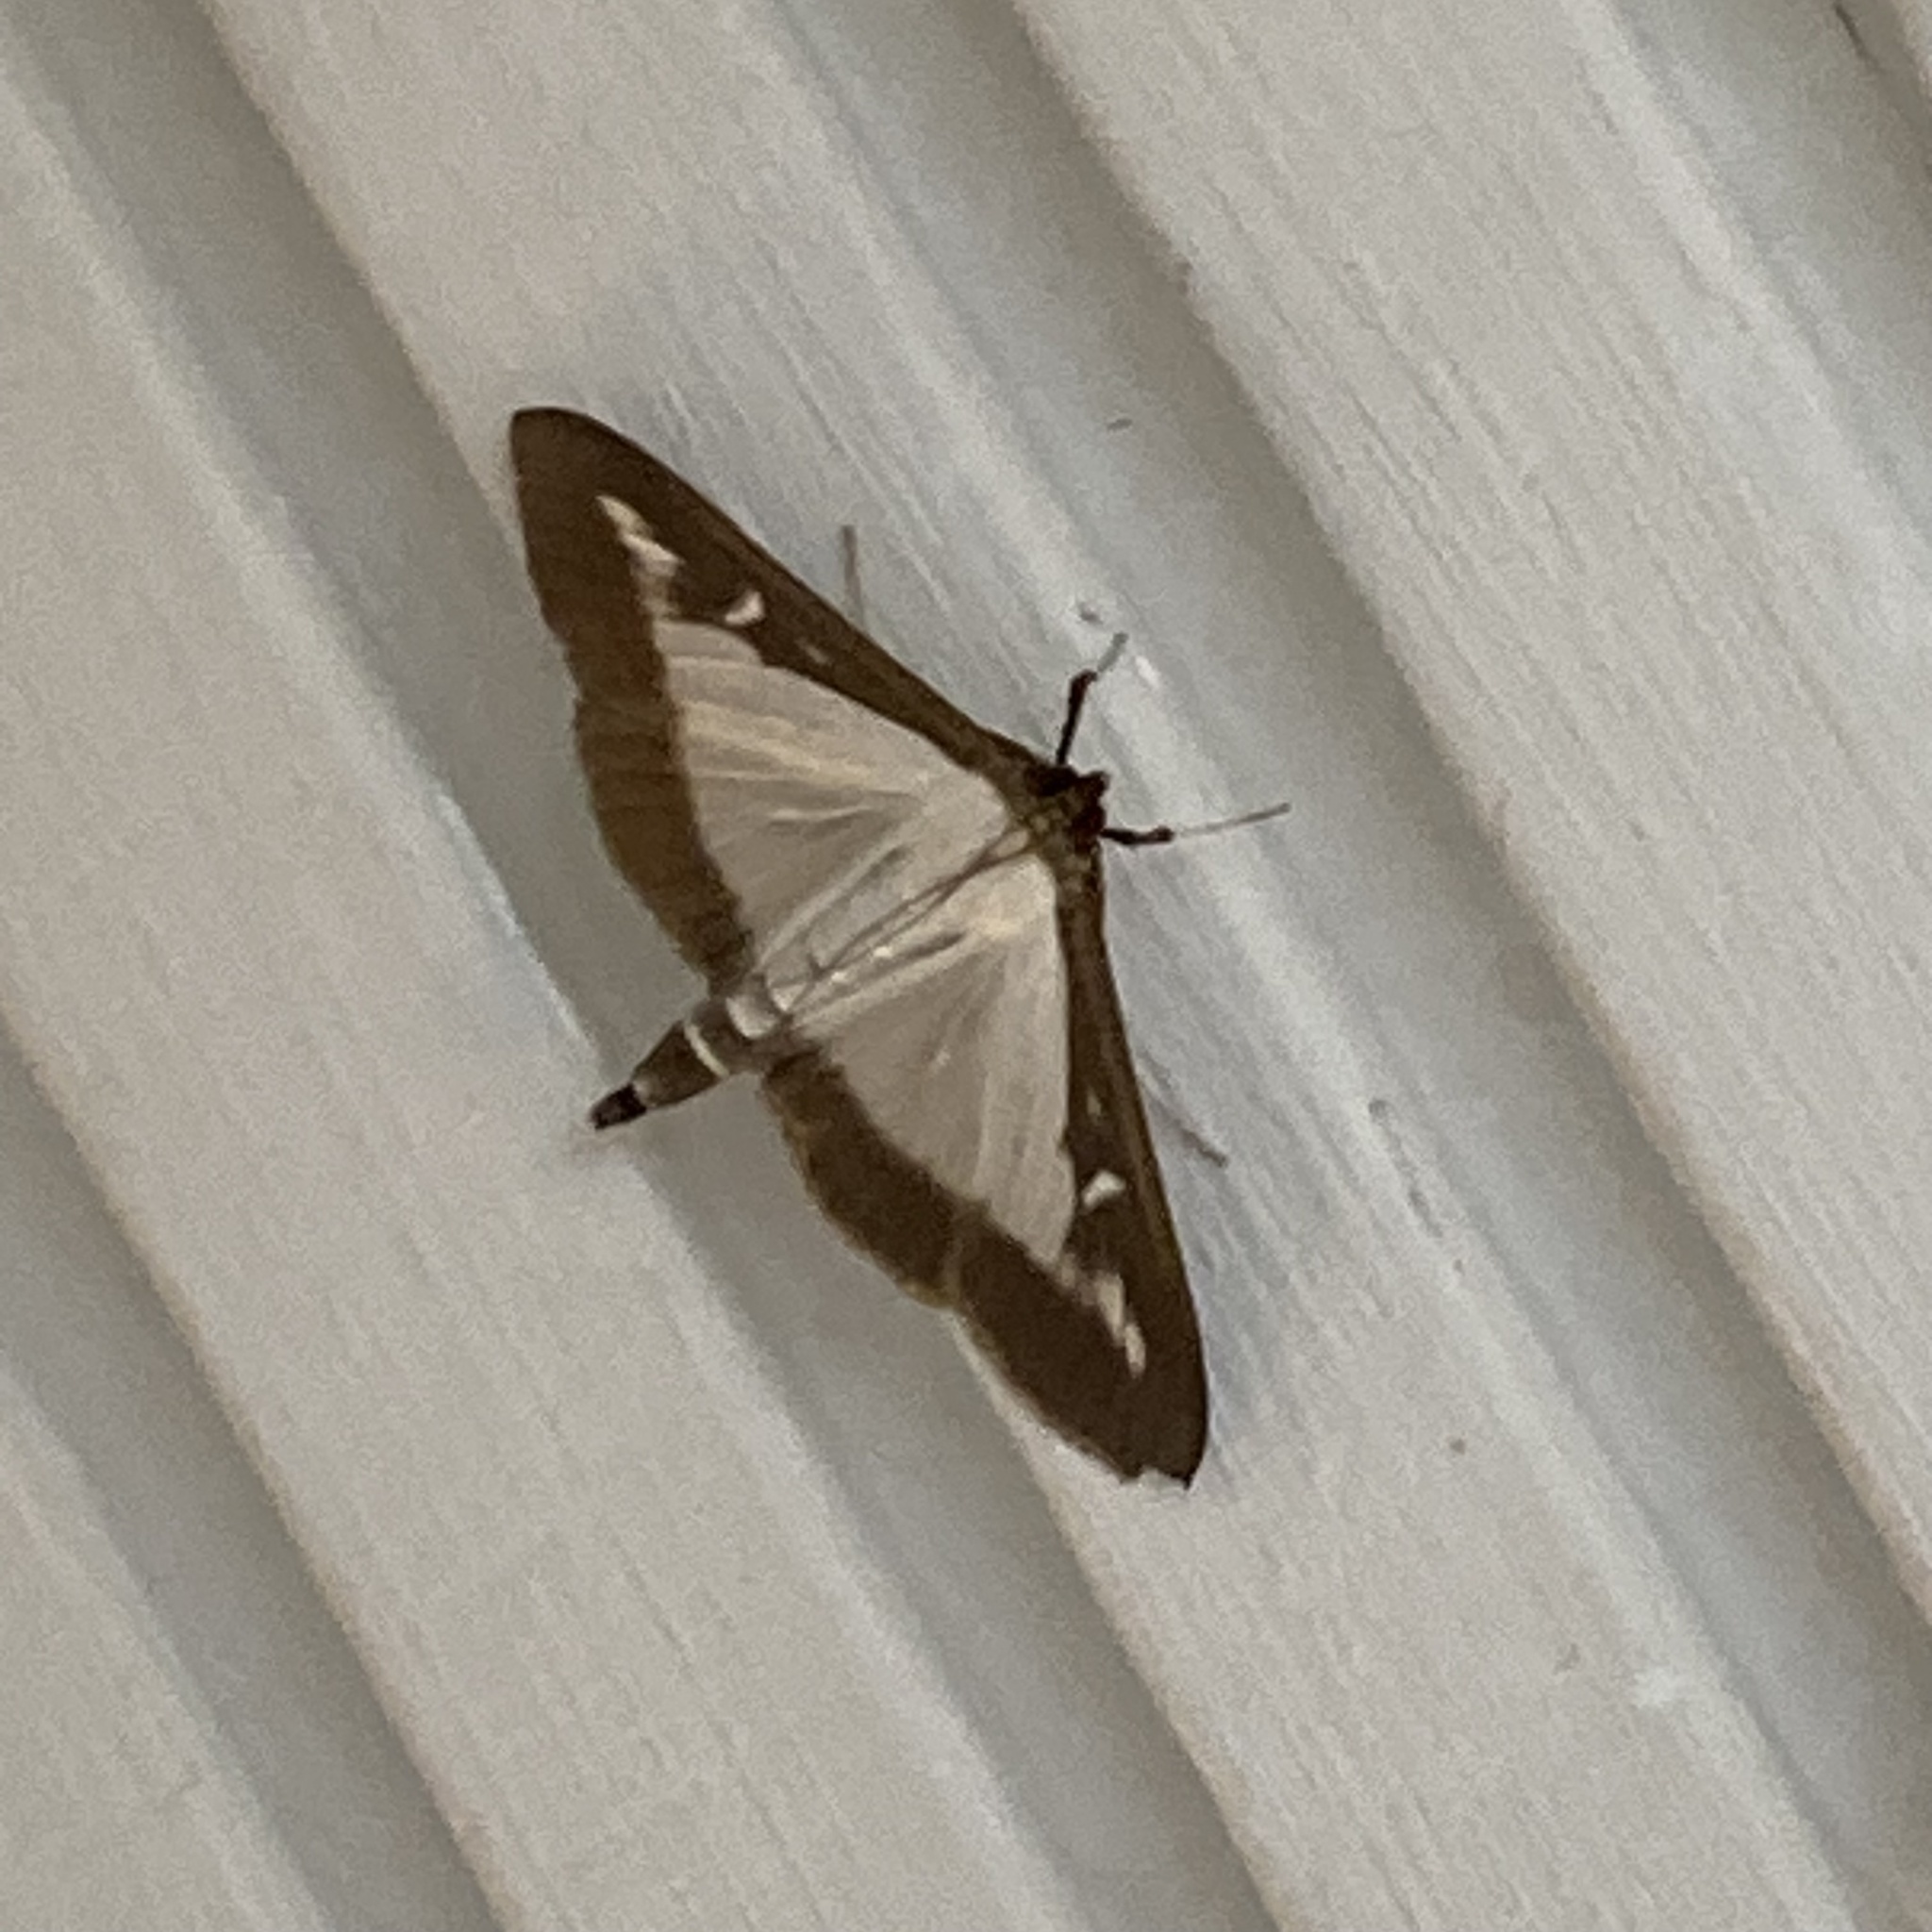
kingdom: Animalia
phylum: Arthropoda
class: Insecta
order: Lepidoptera
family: Crambidae
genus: Cydalima
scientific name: Cydalima perspectalis
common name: Box tree moth
